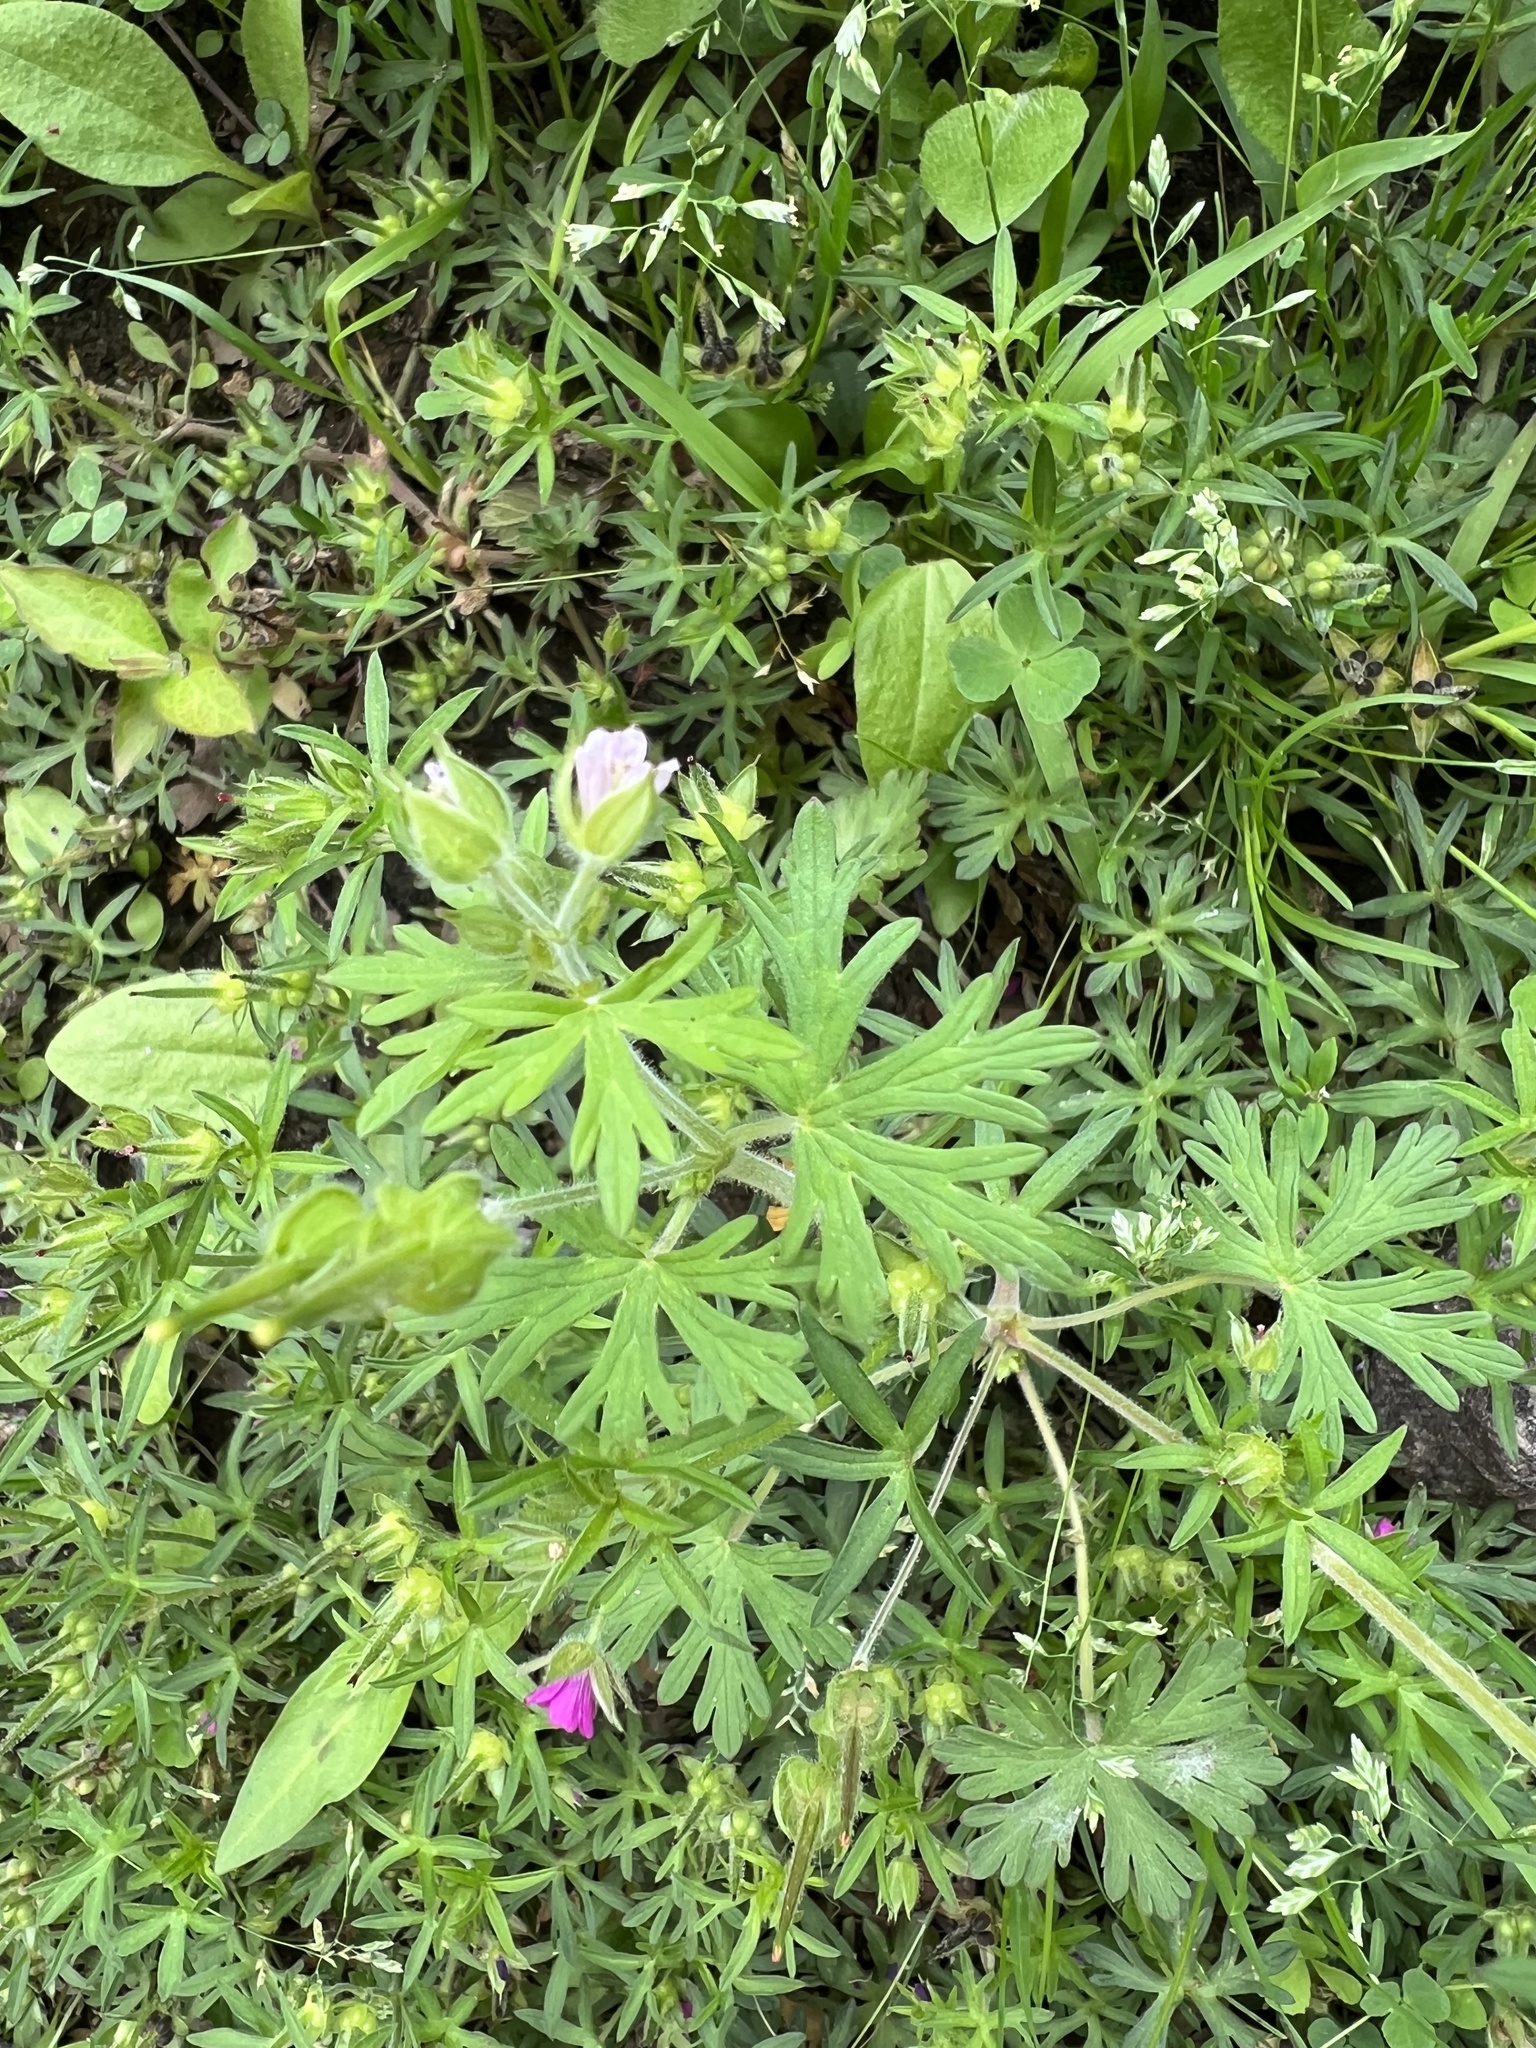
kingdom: Plantae
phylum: Tracheophyta
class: Magnoliopsida
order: Geraniales
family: Geraniaceae
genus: Geranium
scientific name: Geranium carolinianum
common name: Carolina crane's-bill
